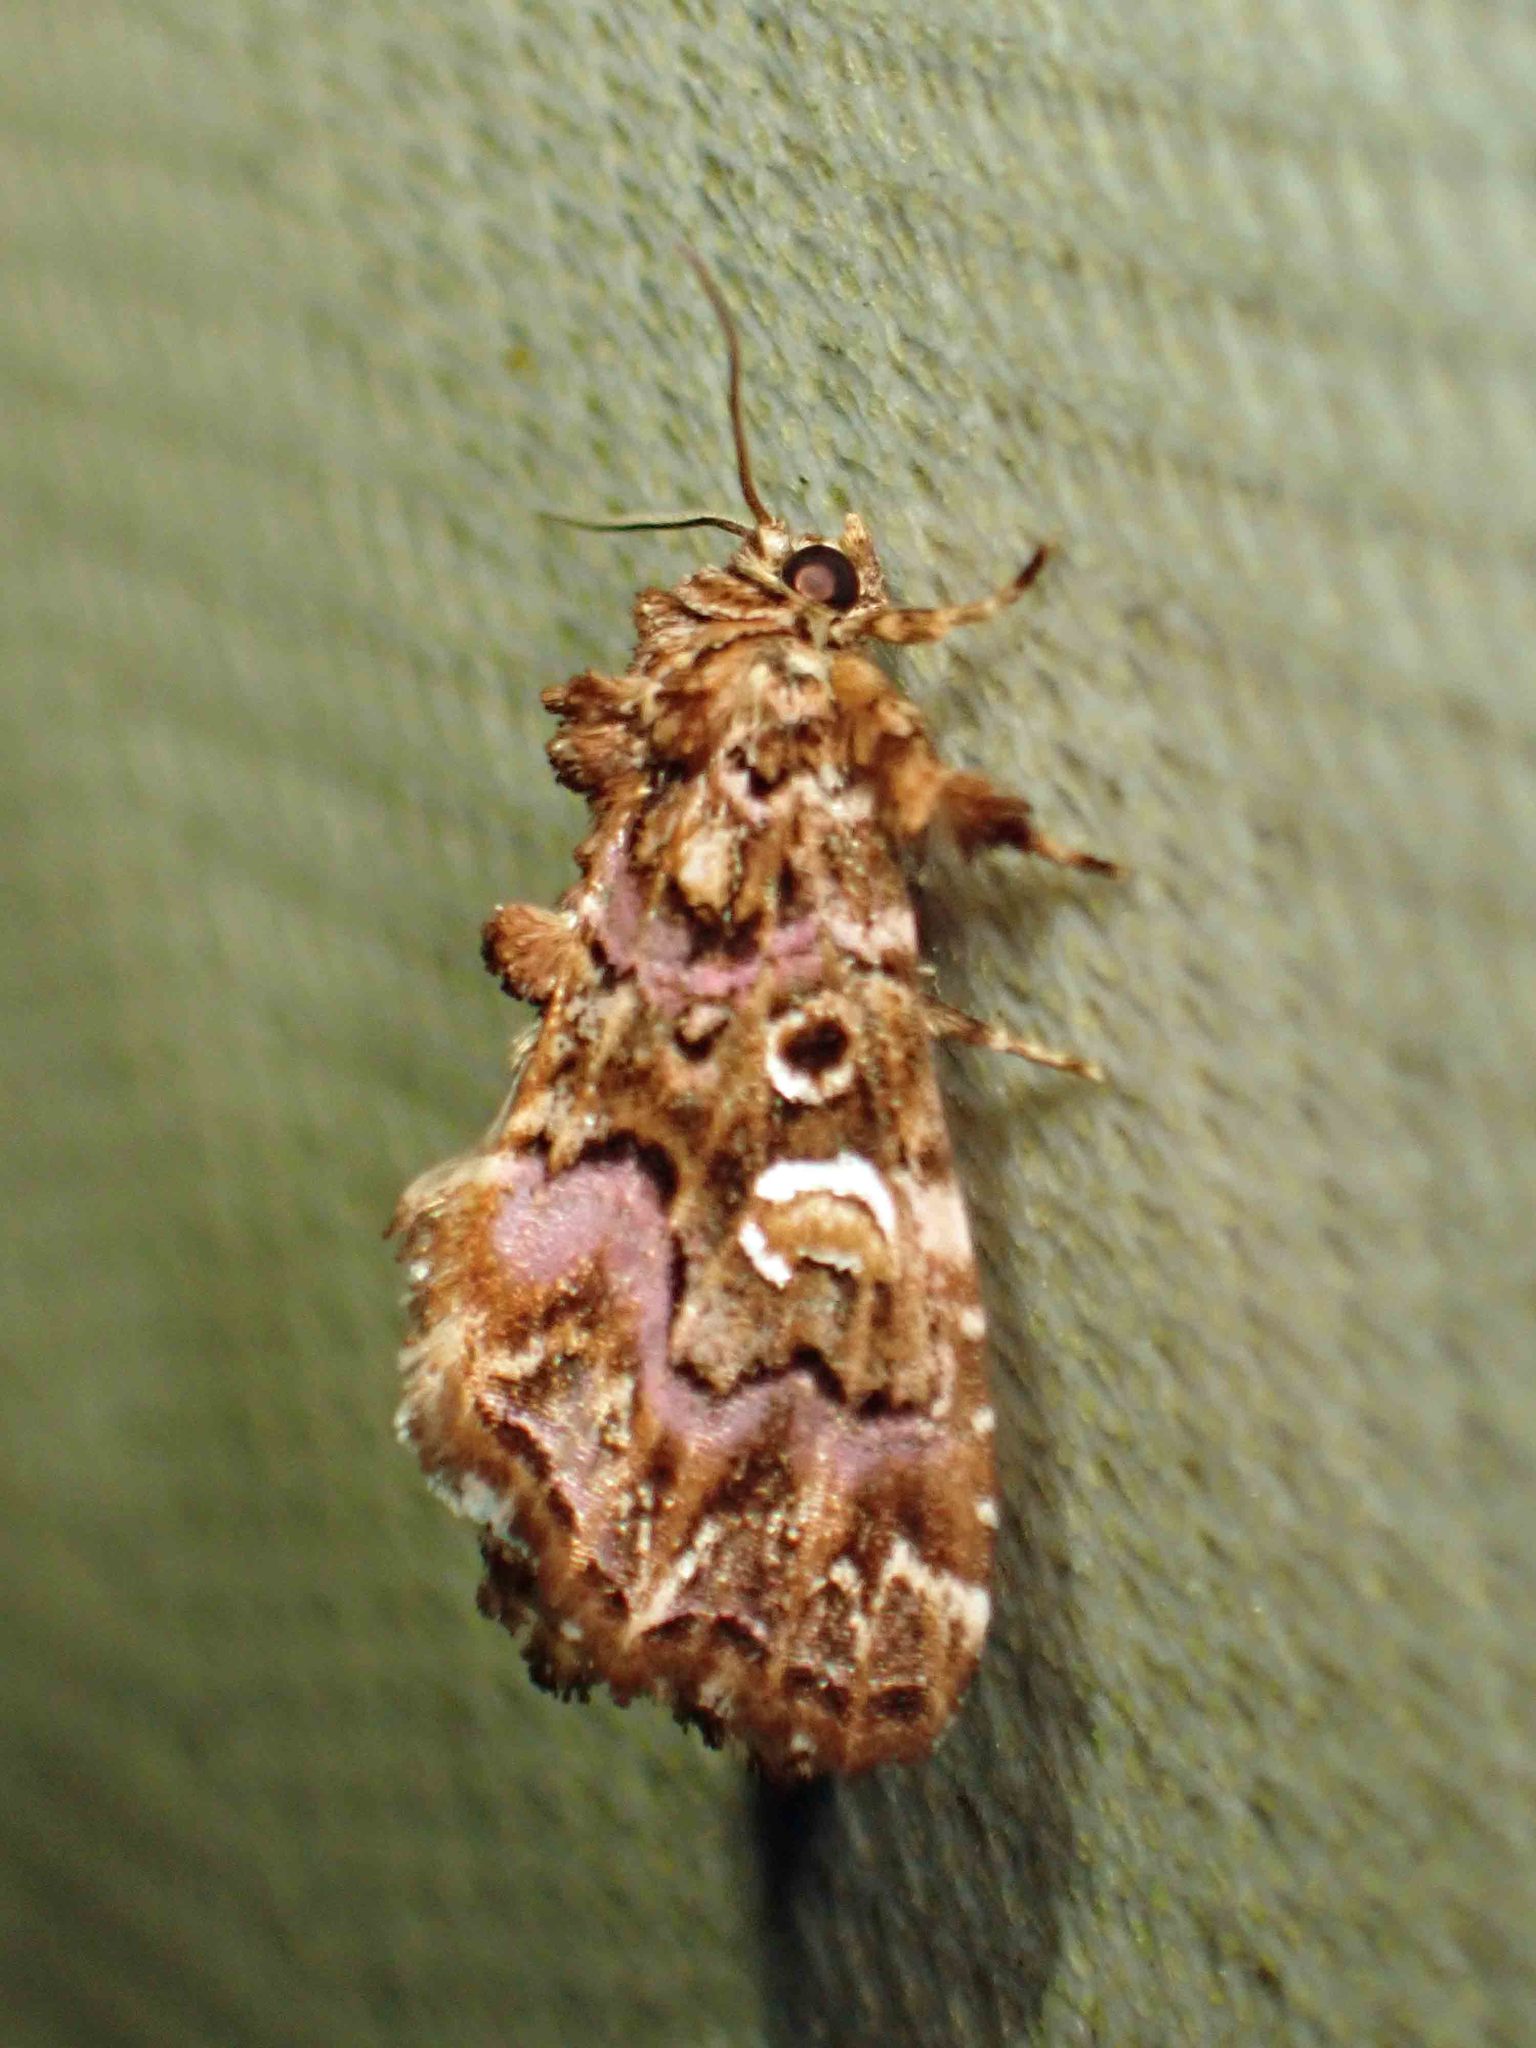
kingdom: Animalia
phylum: Arthropoda
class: Insecta
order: Lepidoptera
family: Noctuidae
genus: Callopistria
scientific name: Callopistria mollissima
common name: Pink-shaded fern moth
